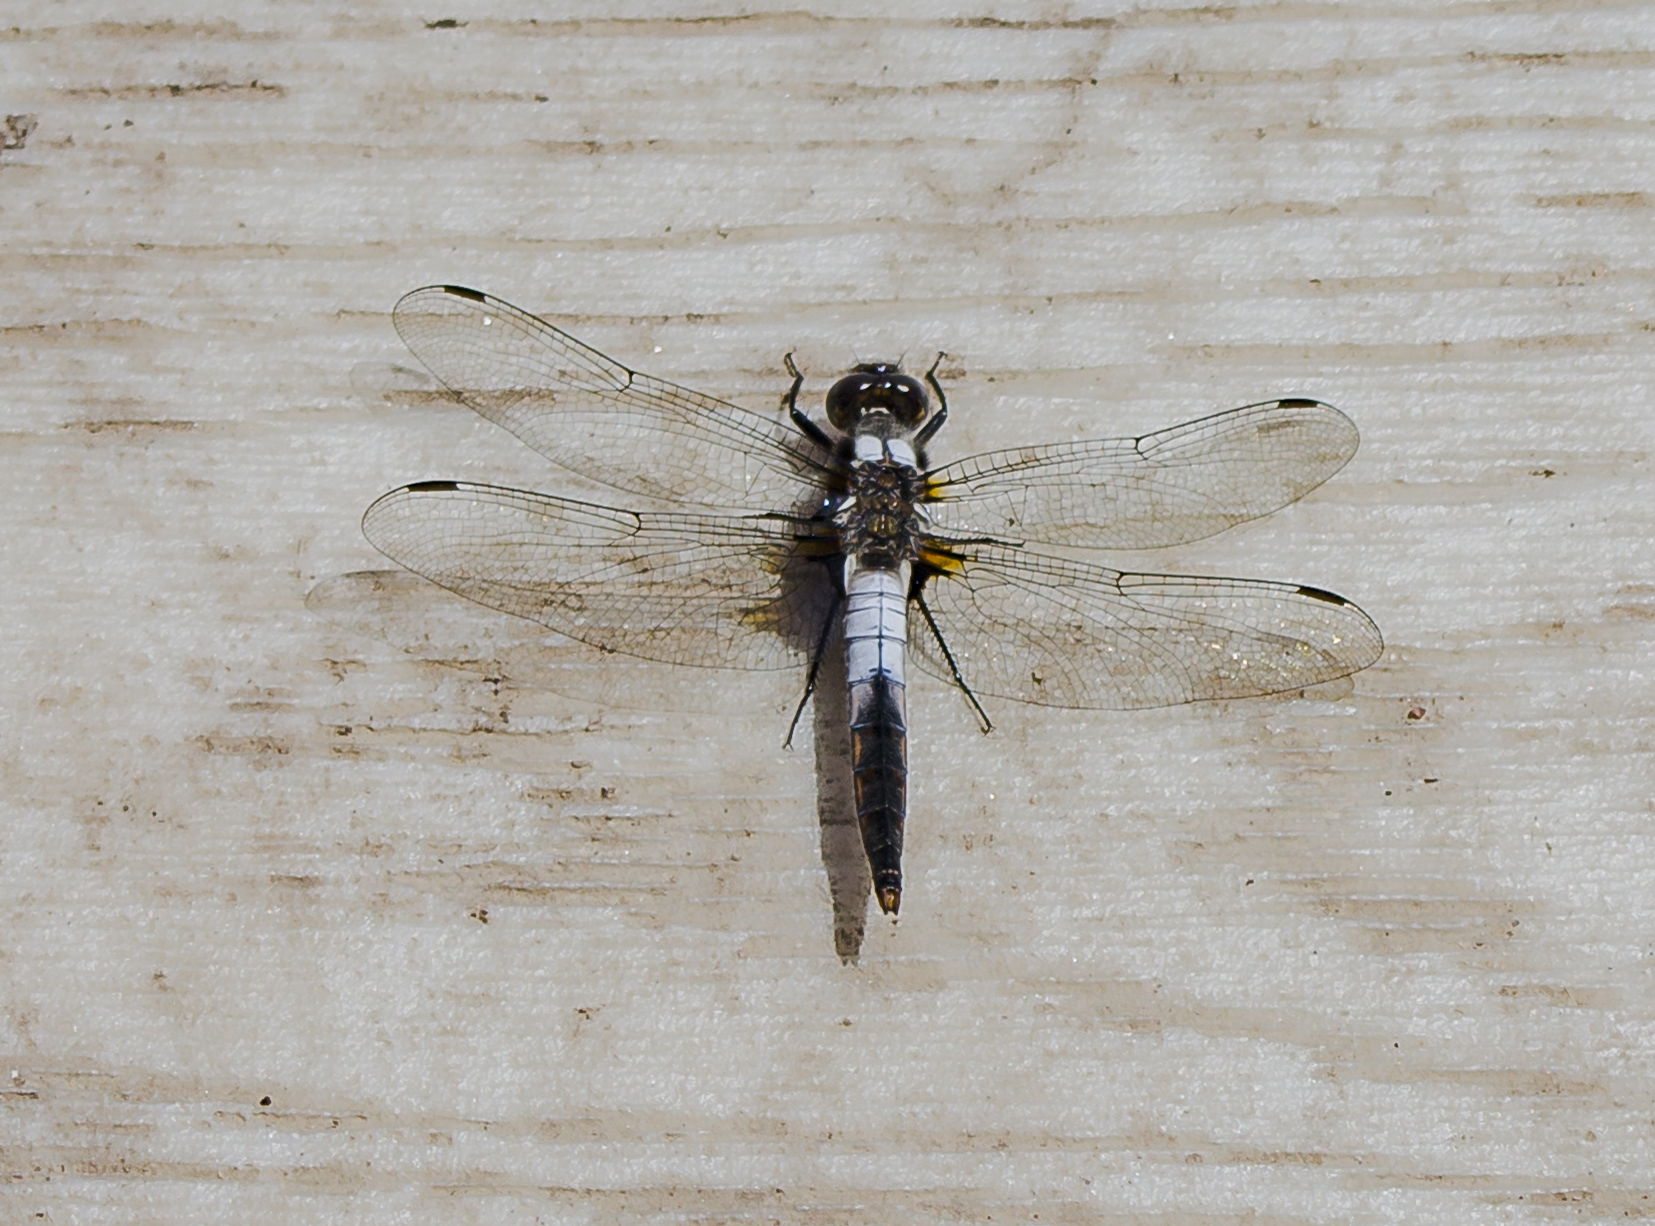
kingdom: Animalia
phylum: Arthropoda
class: Insecta
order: Odonata
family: Libellulidae
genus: Ladona
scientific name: Ladona julia
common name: Chalk-fronted corporal
